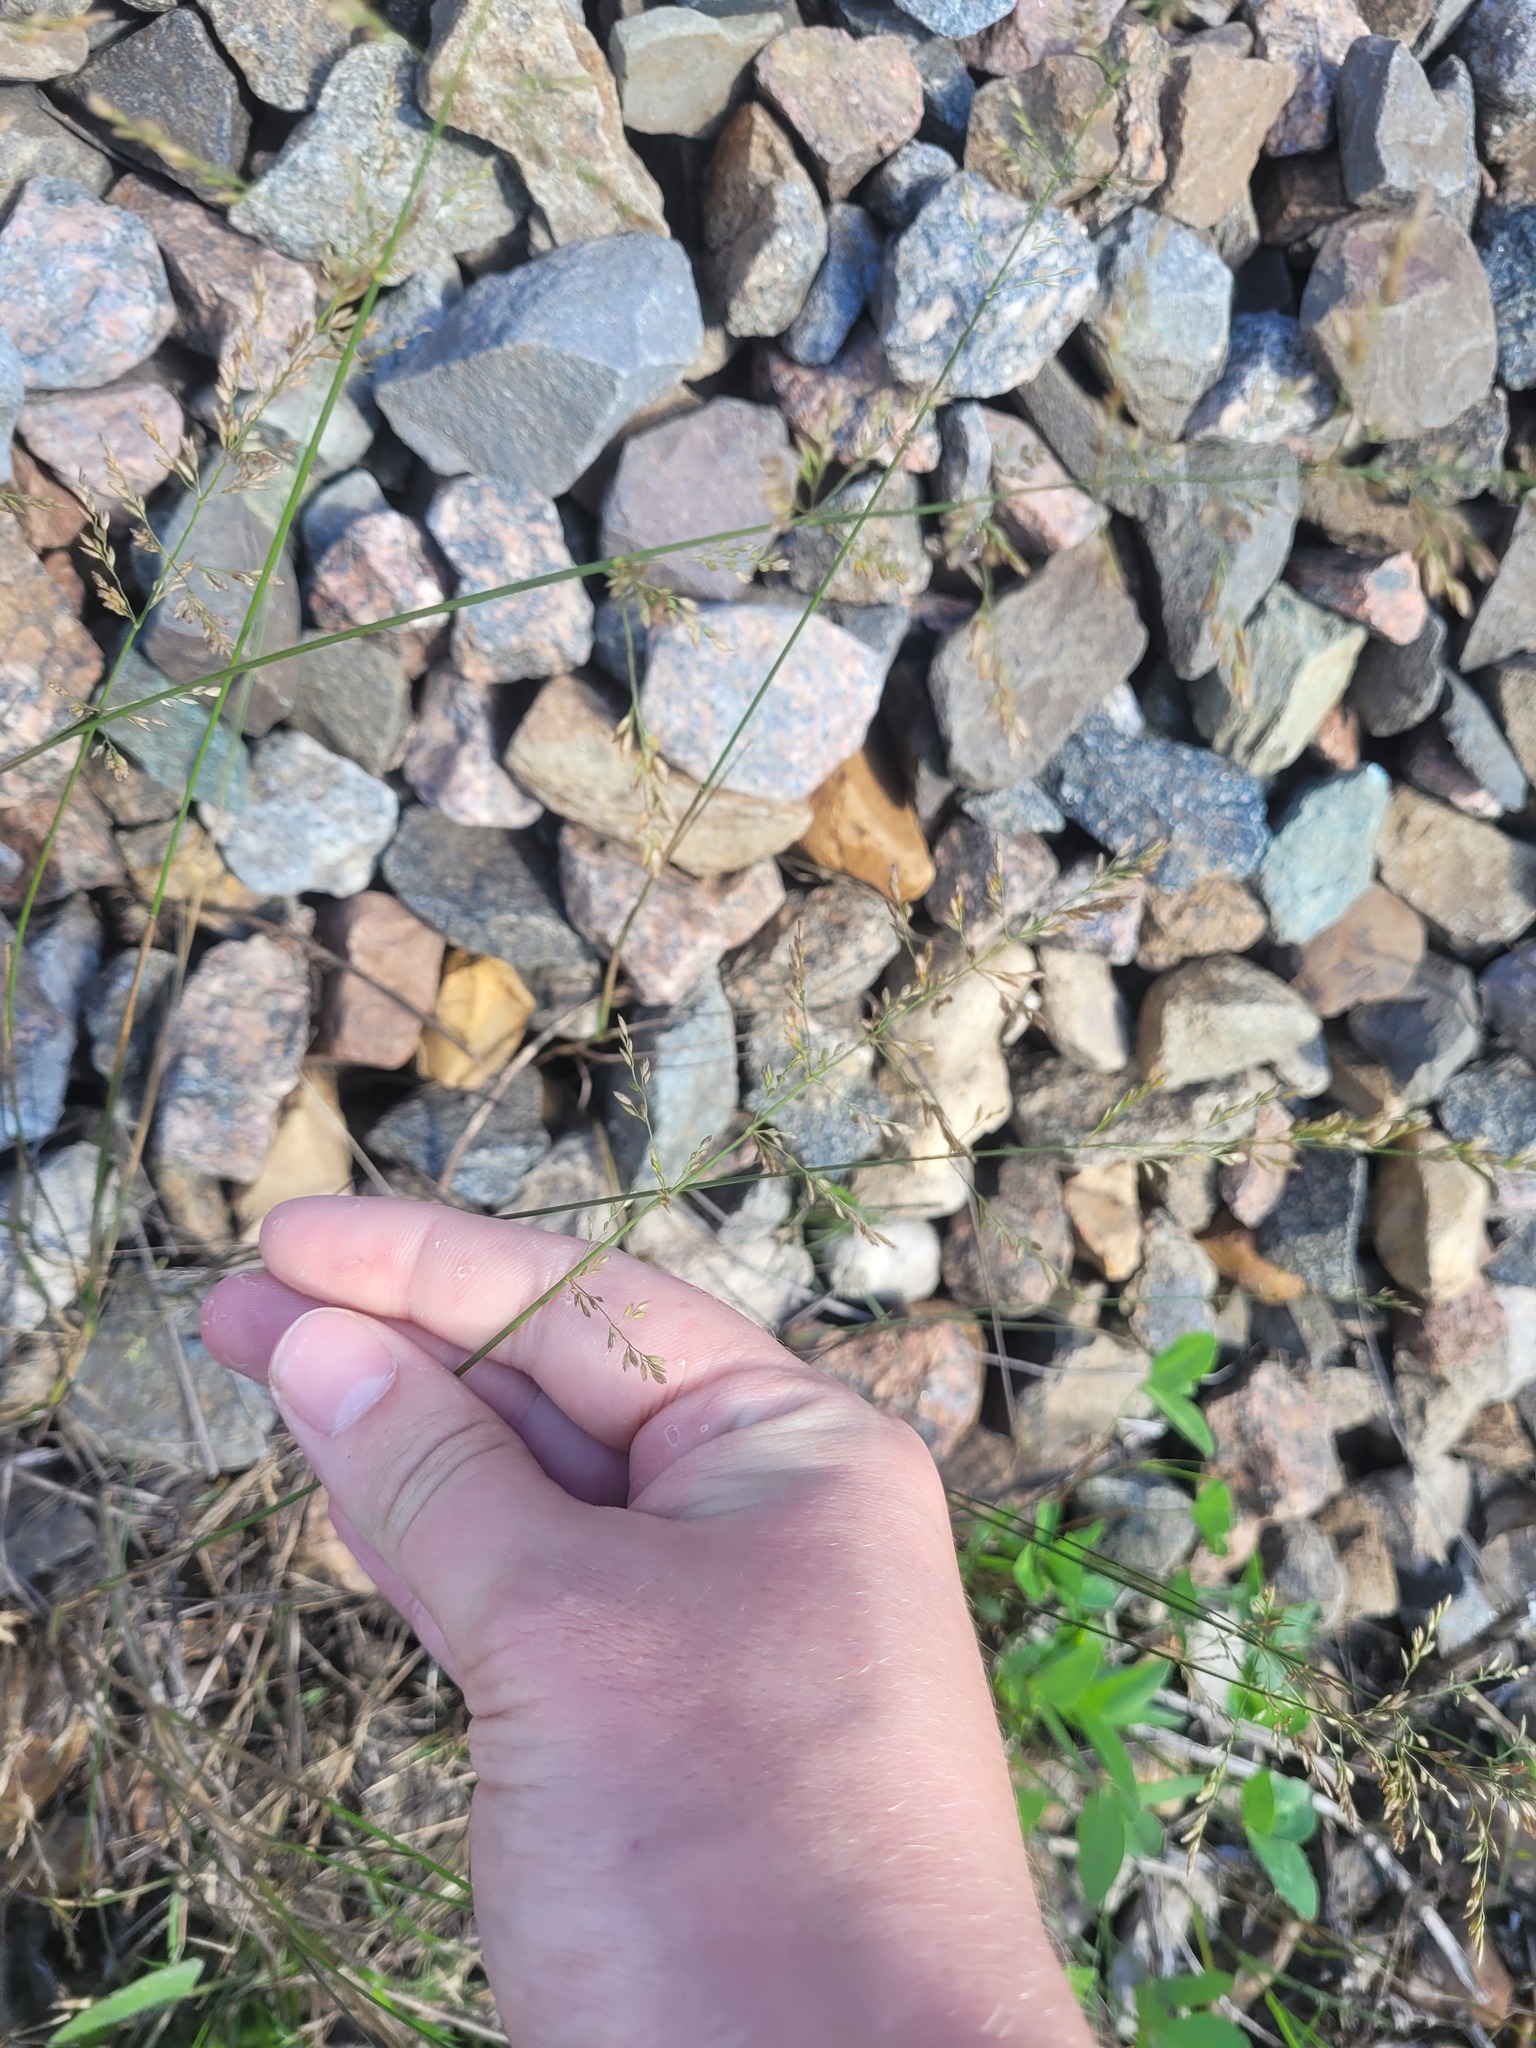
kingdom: Plantae
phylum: Tracheophyta
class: Liliopsida
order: Poales
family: Poaceae
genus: Poa
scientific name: Poa compressa
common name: Canada bluegrass
